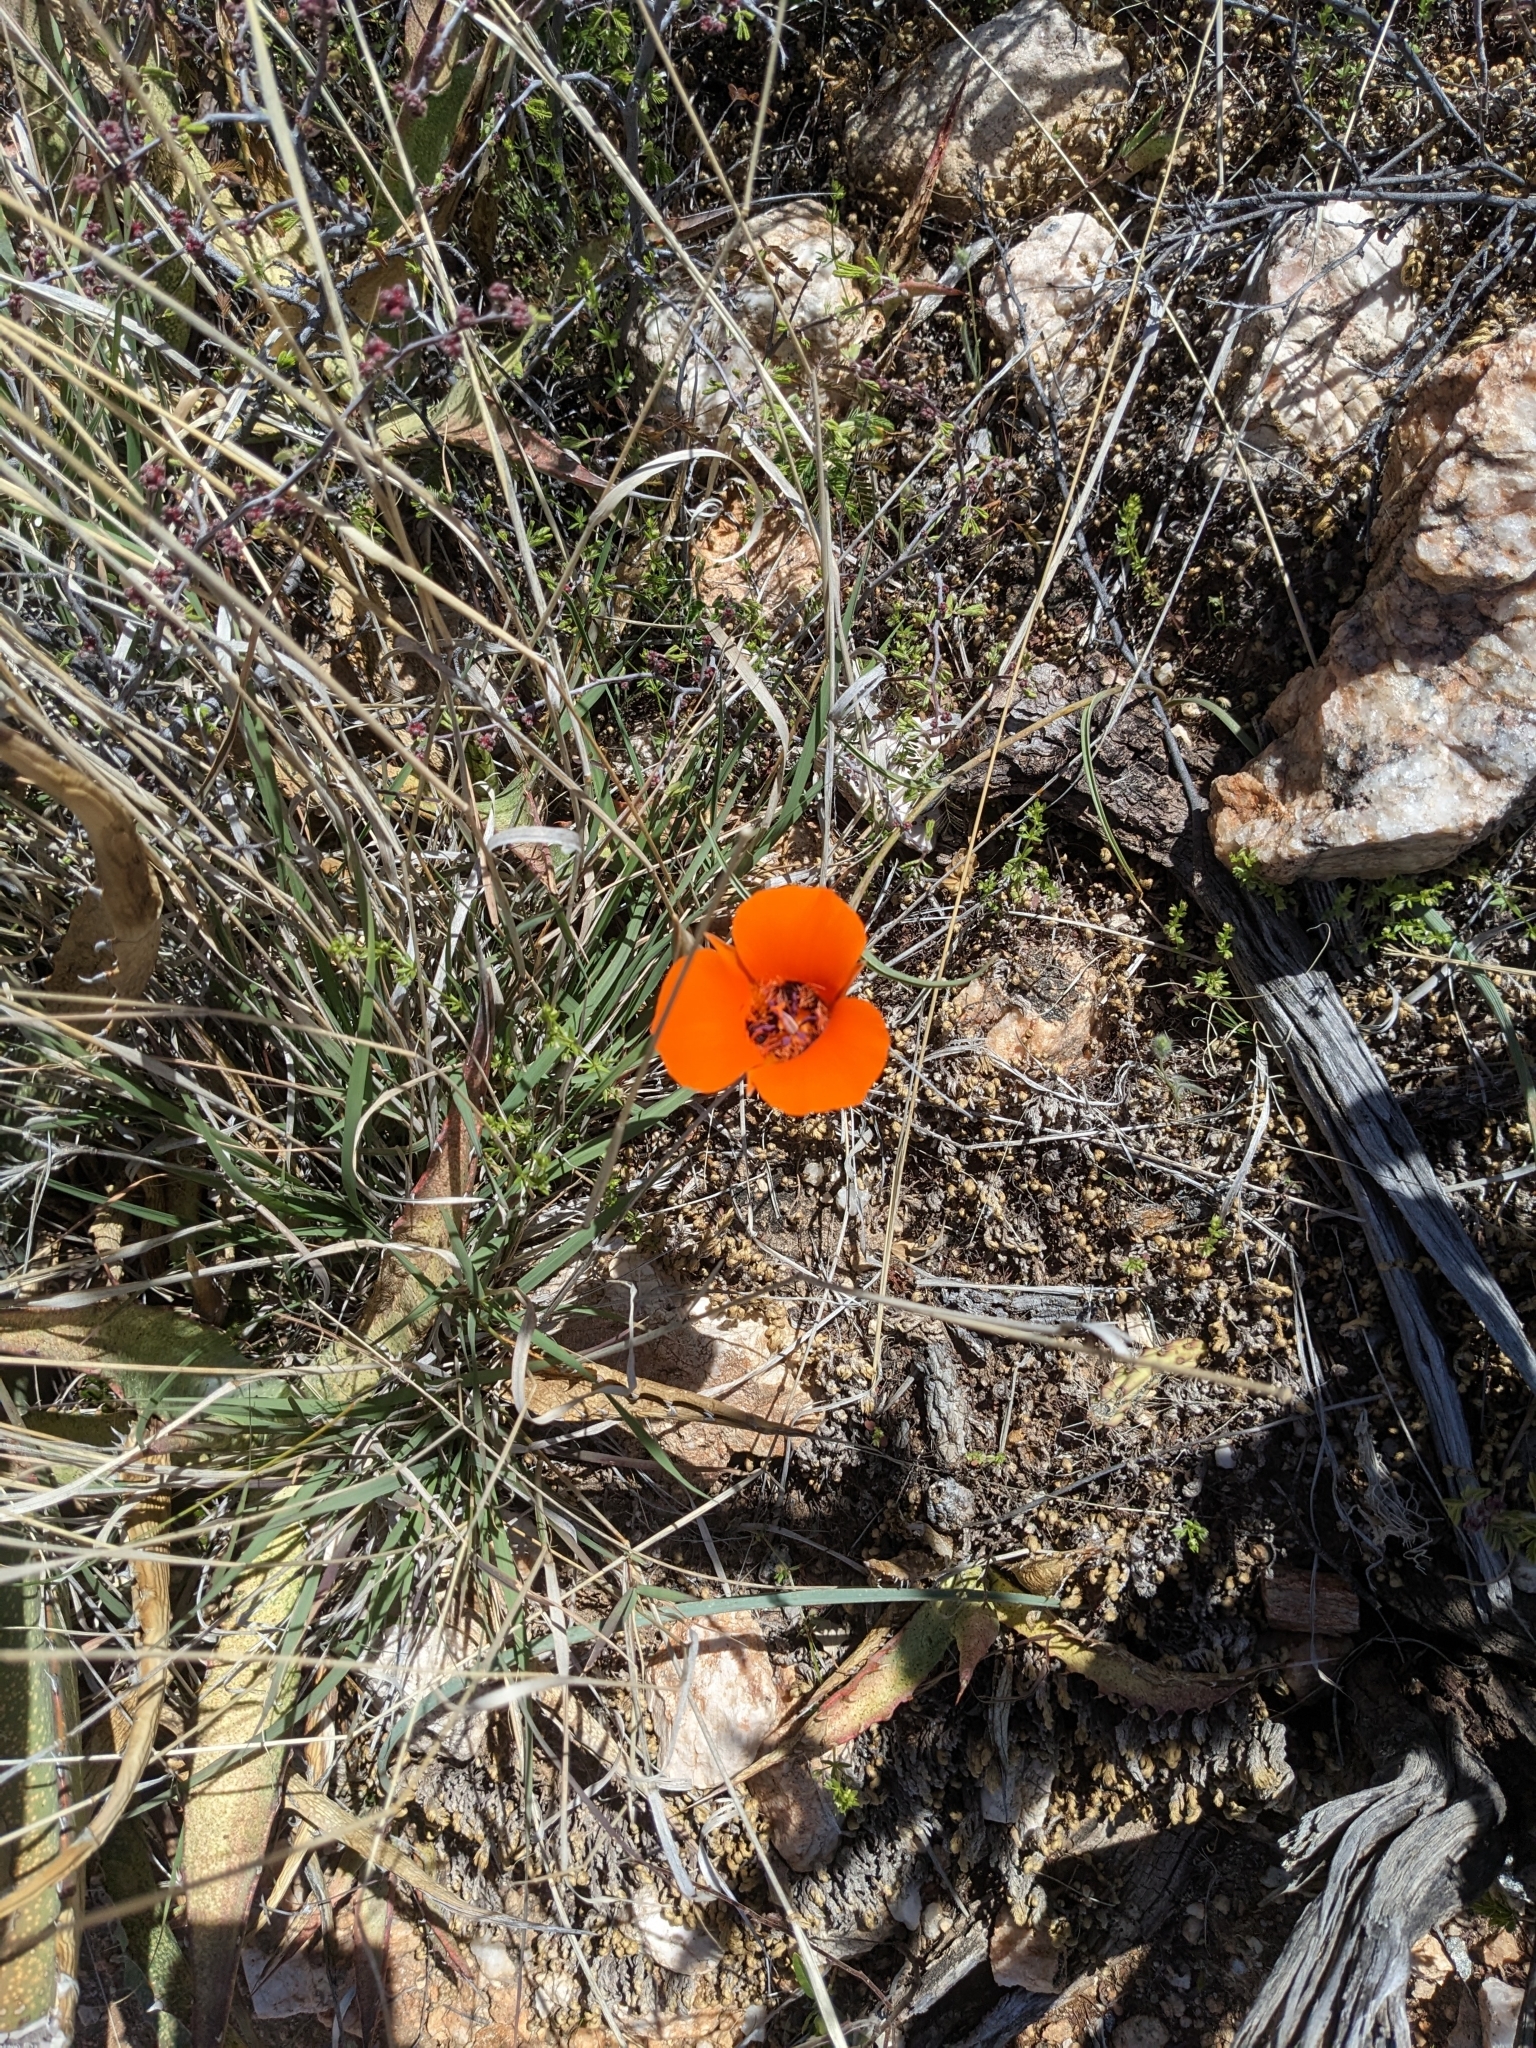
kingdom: Plantae
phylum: Tracheophyta
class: Liliopsida
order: Liliales
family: Liliaceae
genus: Calochortus
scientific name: Calochortus kennedyi
